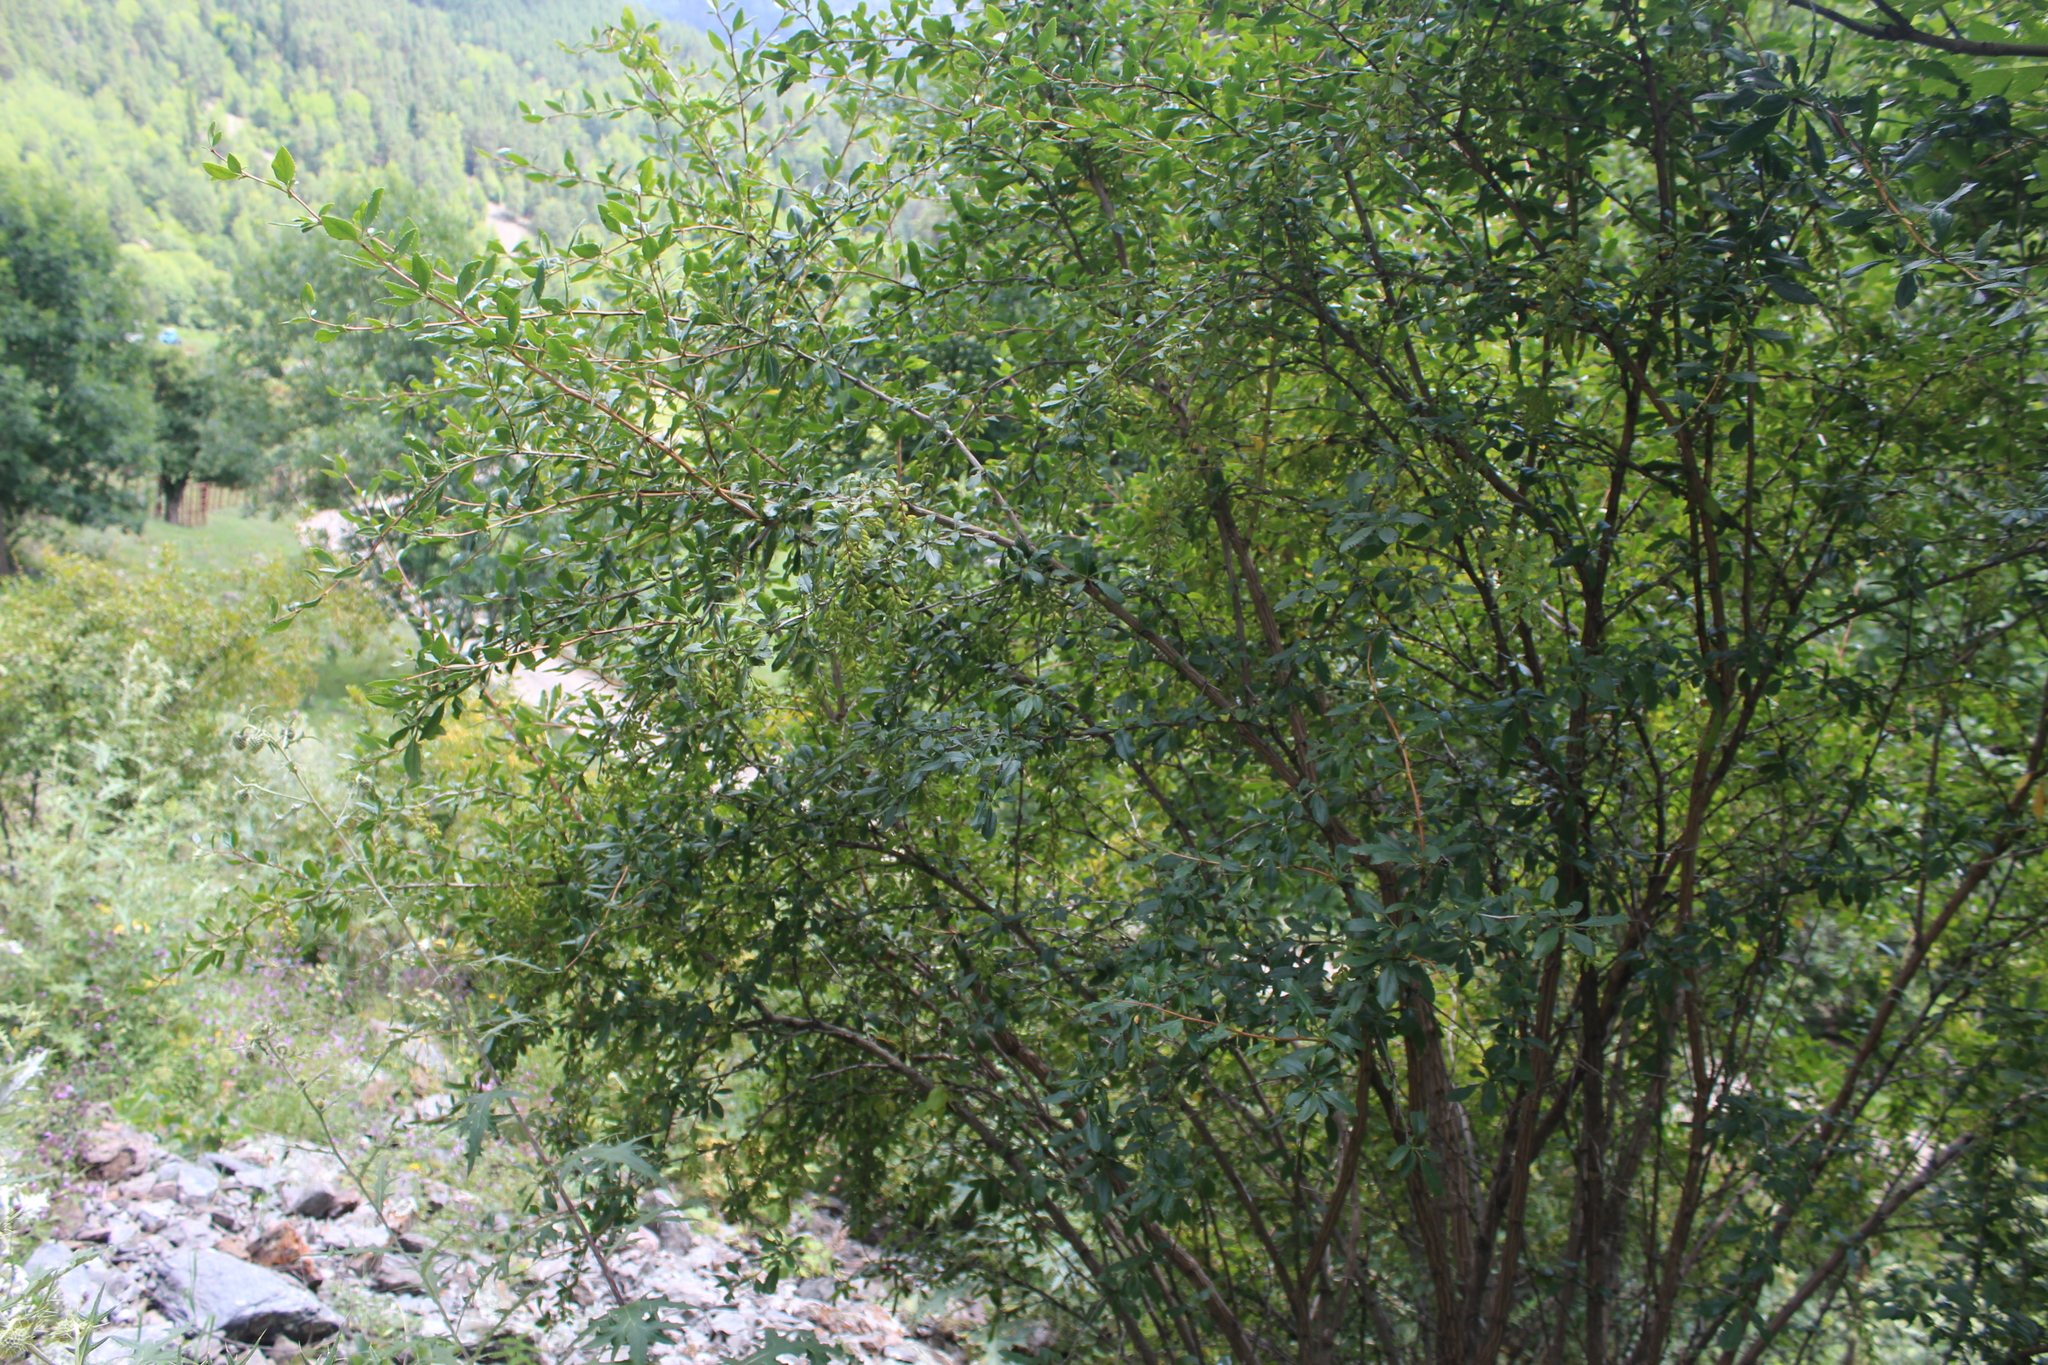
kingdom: Plantae
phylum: Tracheophyta
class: Magnoliopsida
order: Ranunculales
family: Berberidaceae
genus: Berberis
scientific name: Berberis vulgaris
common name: Barberry
